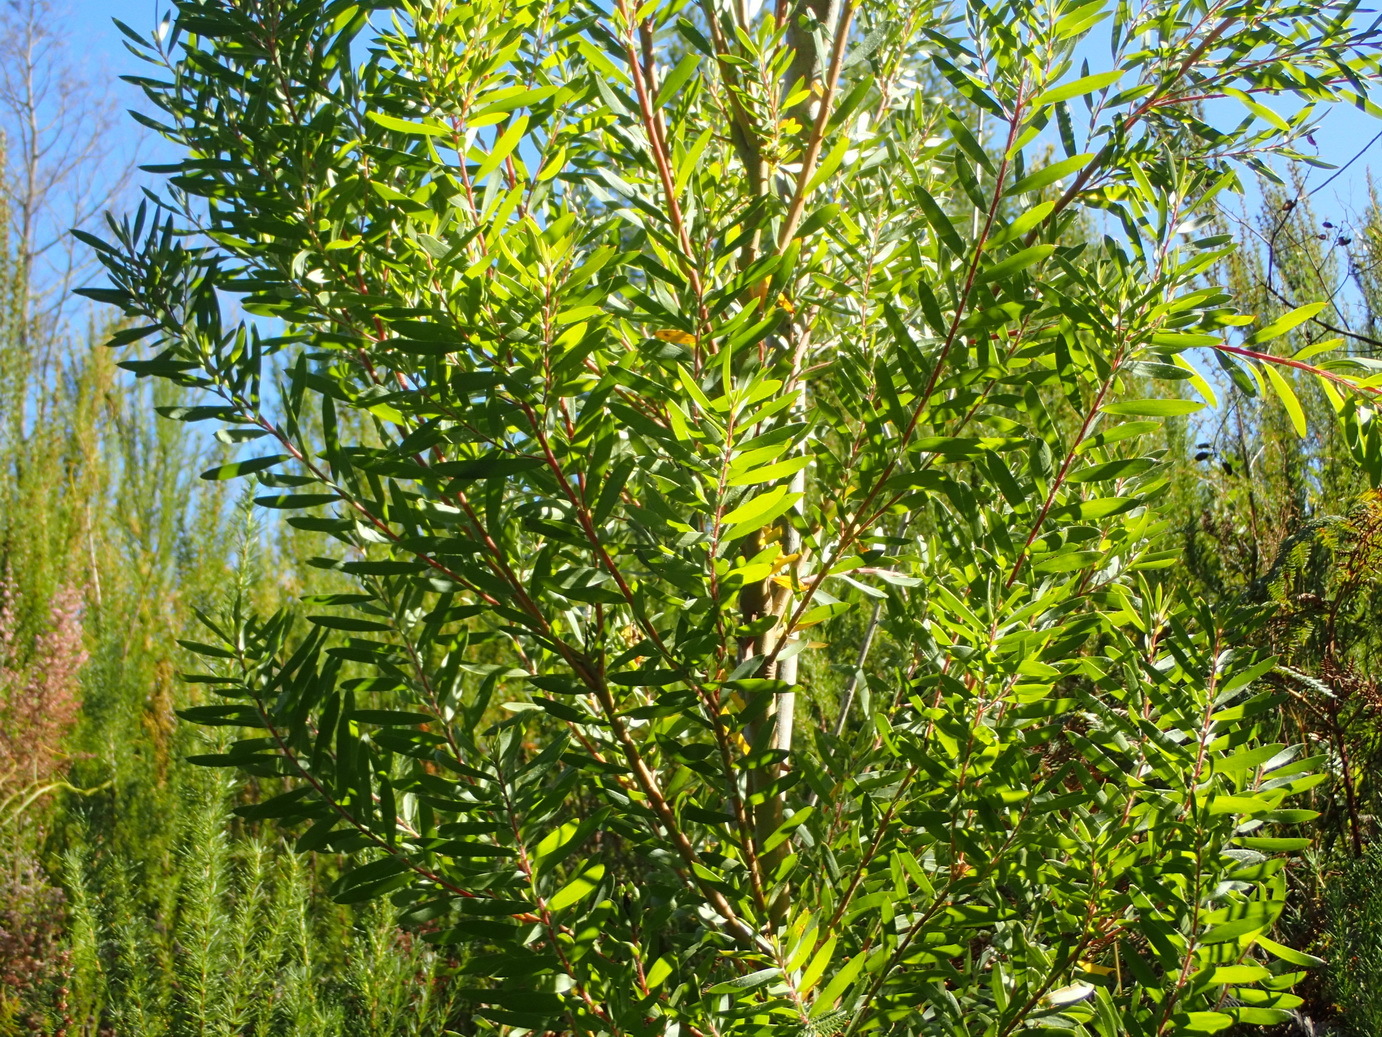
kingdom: Plantae
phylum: Tracheophyta
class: Magnoliopsida
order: Proteales
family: Proteaceae
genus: Leucadendron
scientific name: Leucadendron conicum
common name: Garden route conebush
